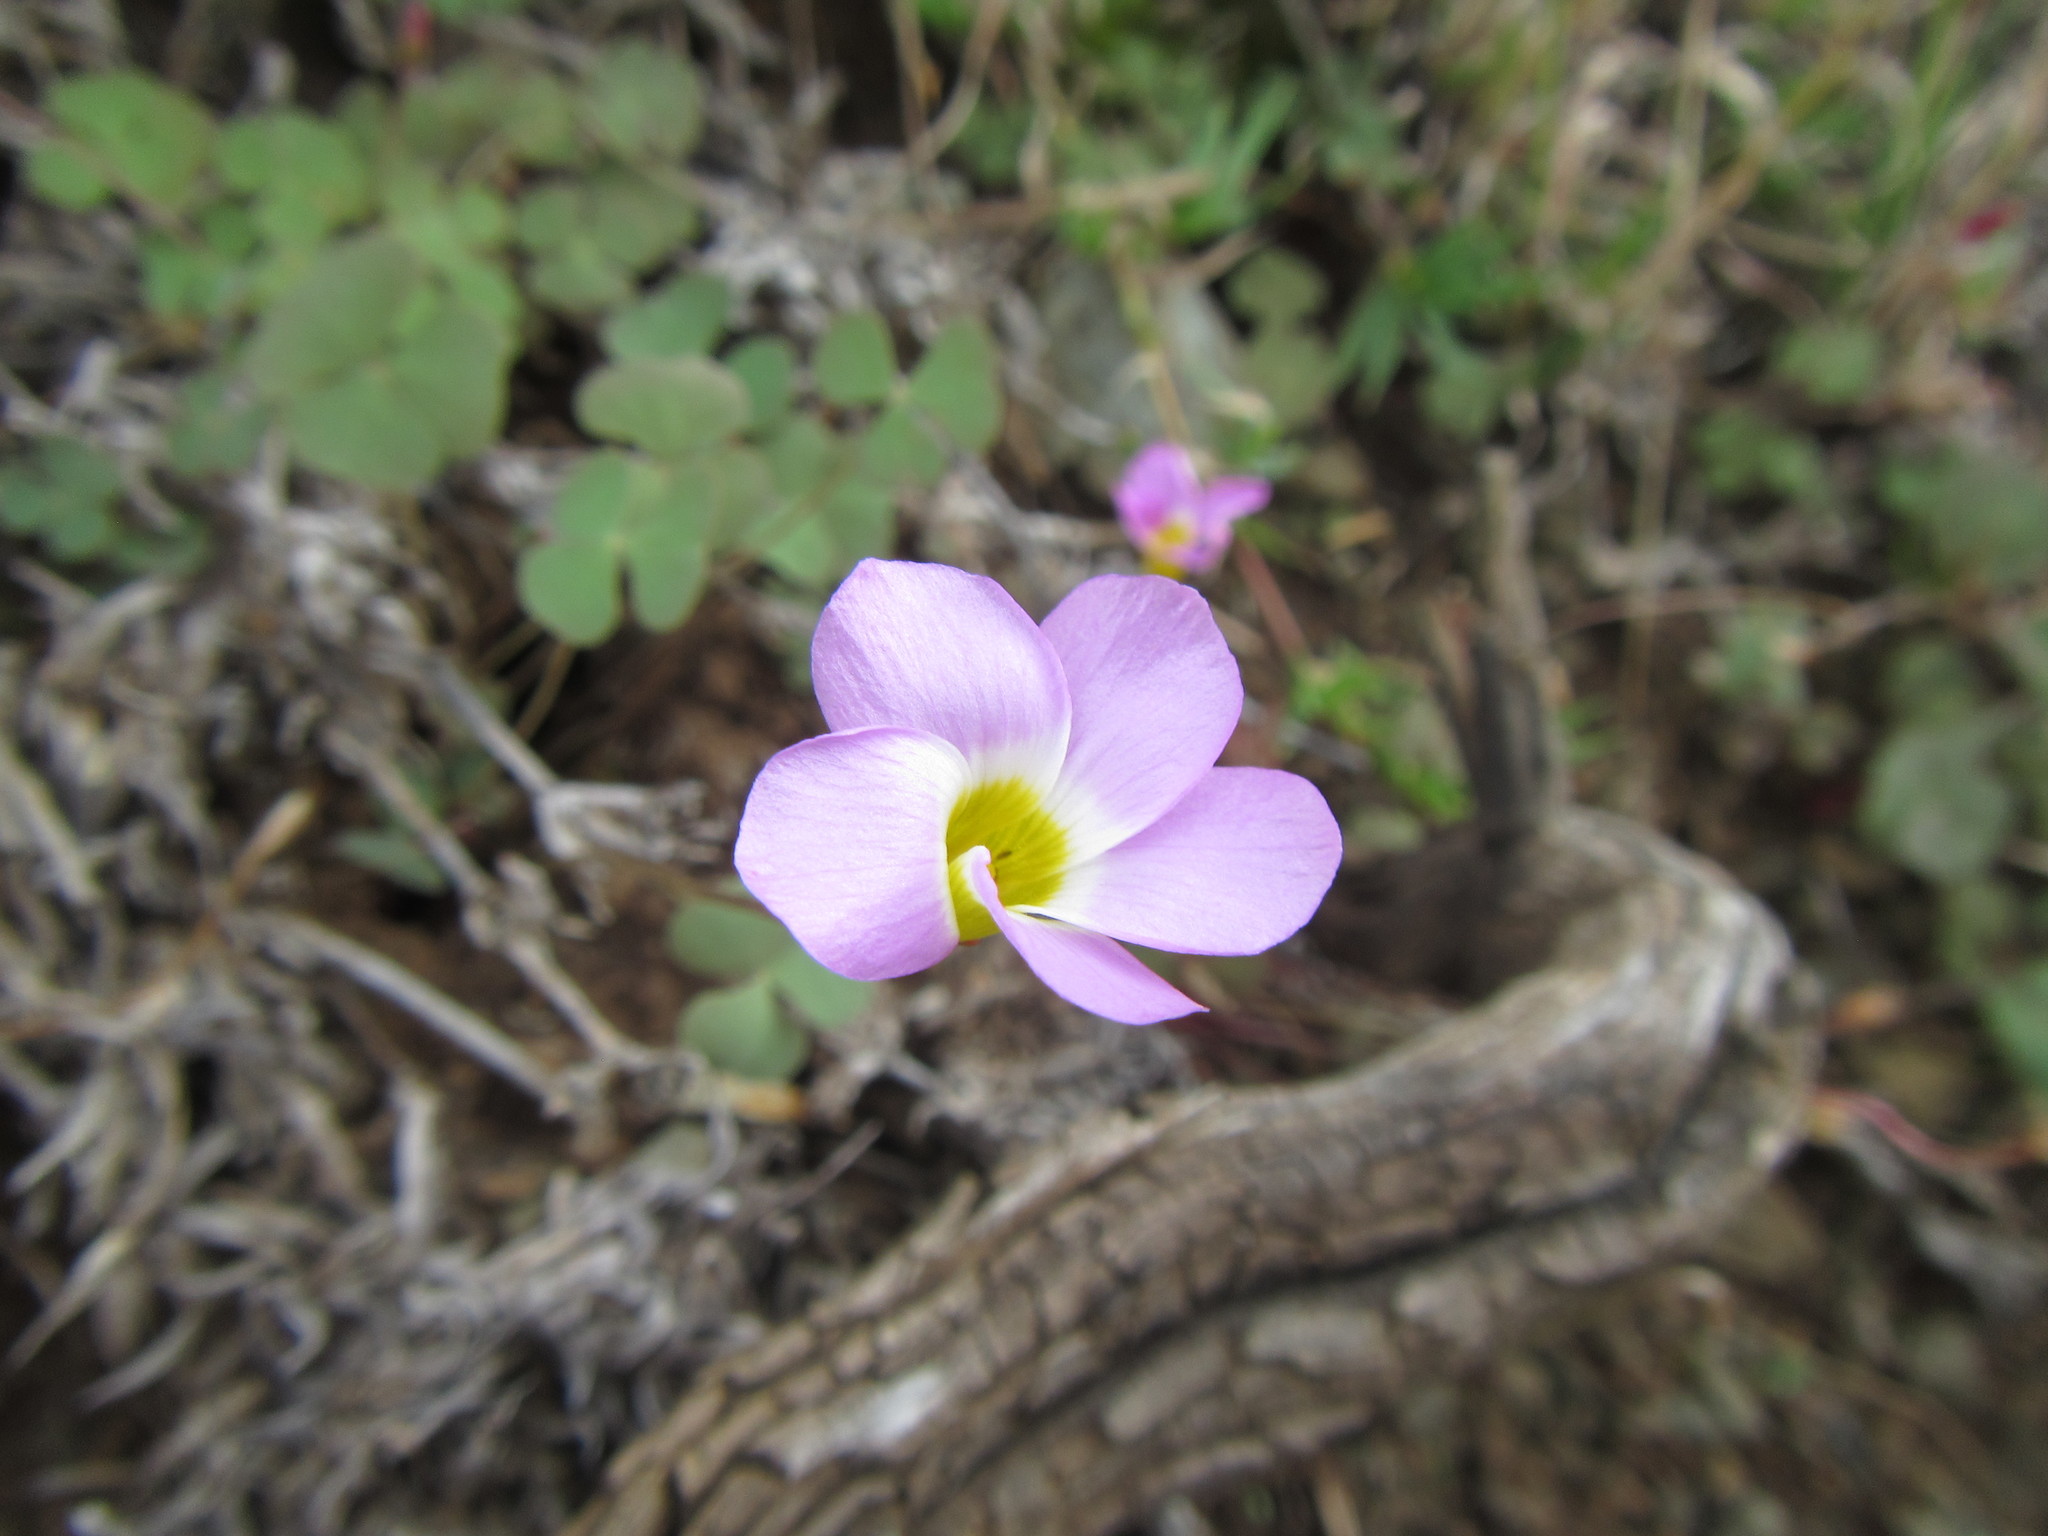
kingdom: Plantae
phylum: Tracheophyta
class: Magnoliopsida
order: Oxalidales
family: Oxalidaceae
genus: Oxalis
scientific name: Oxalis obliquifolia
